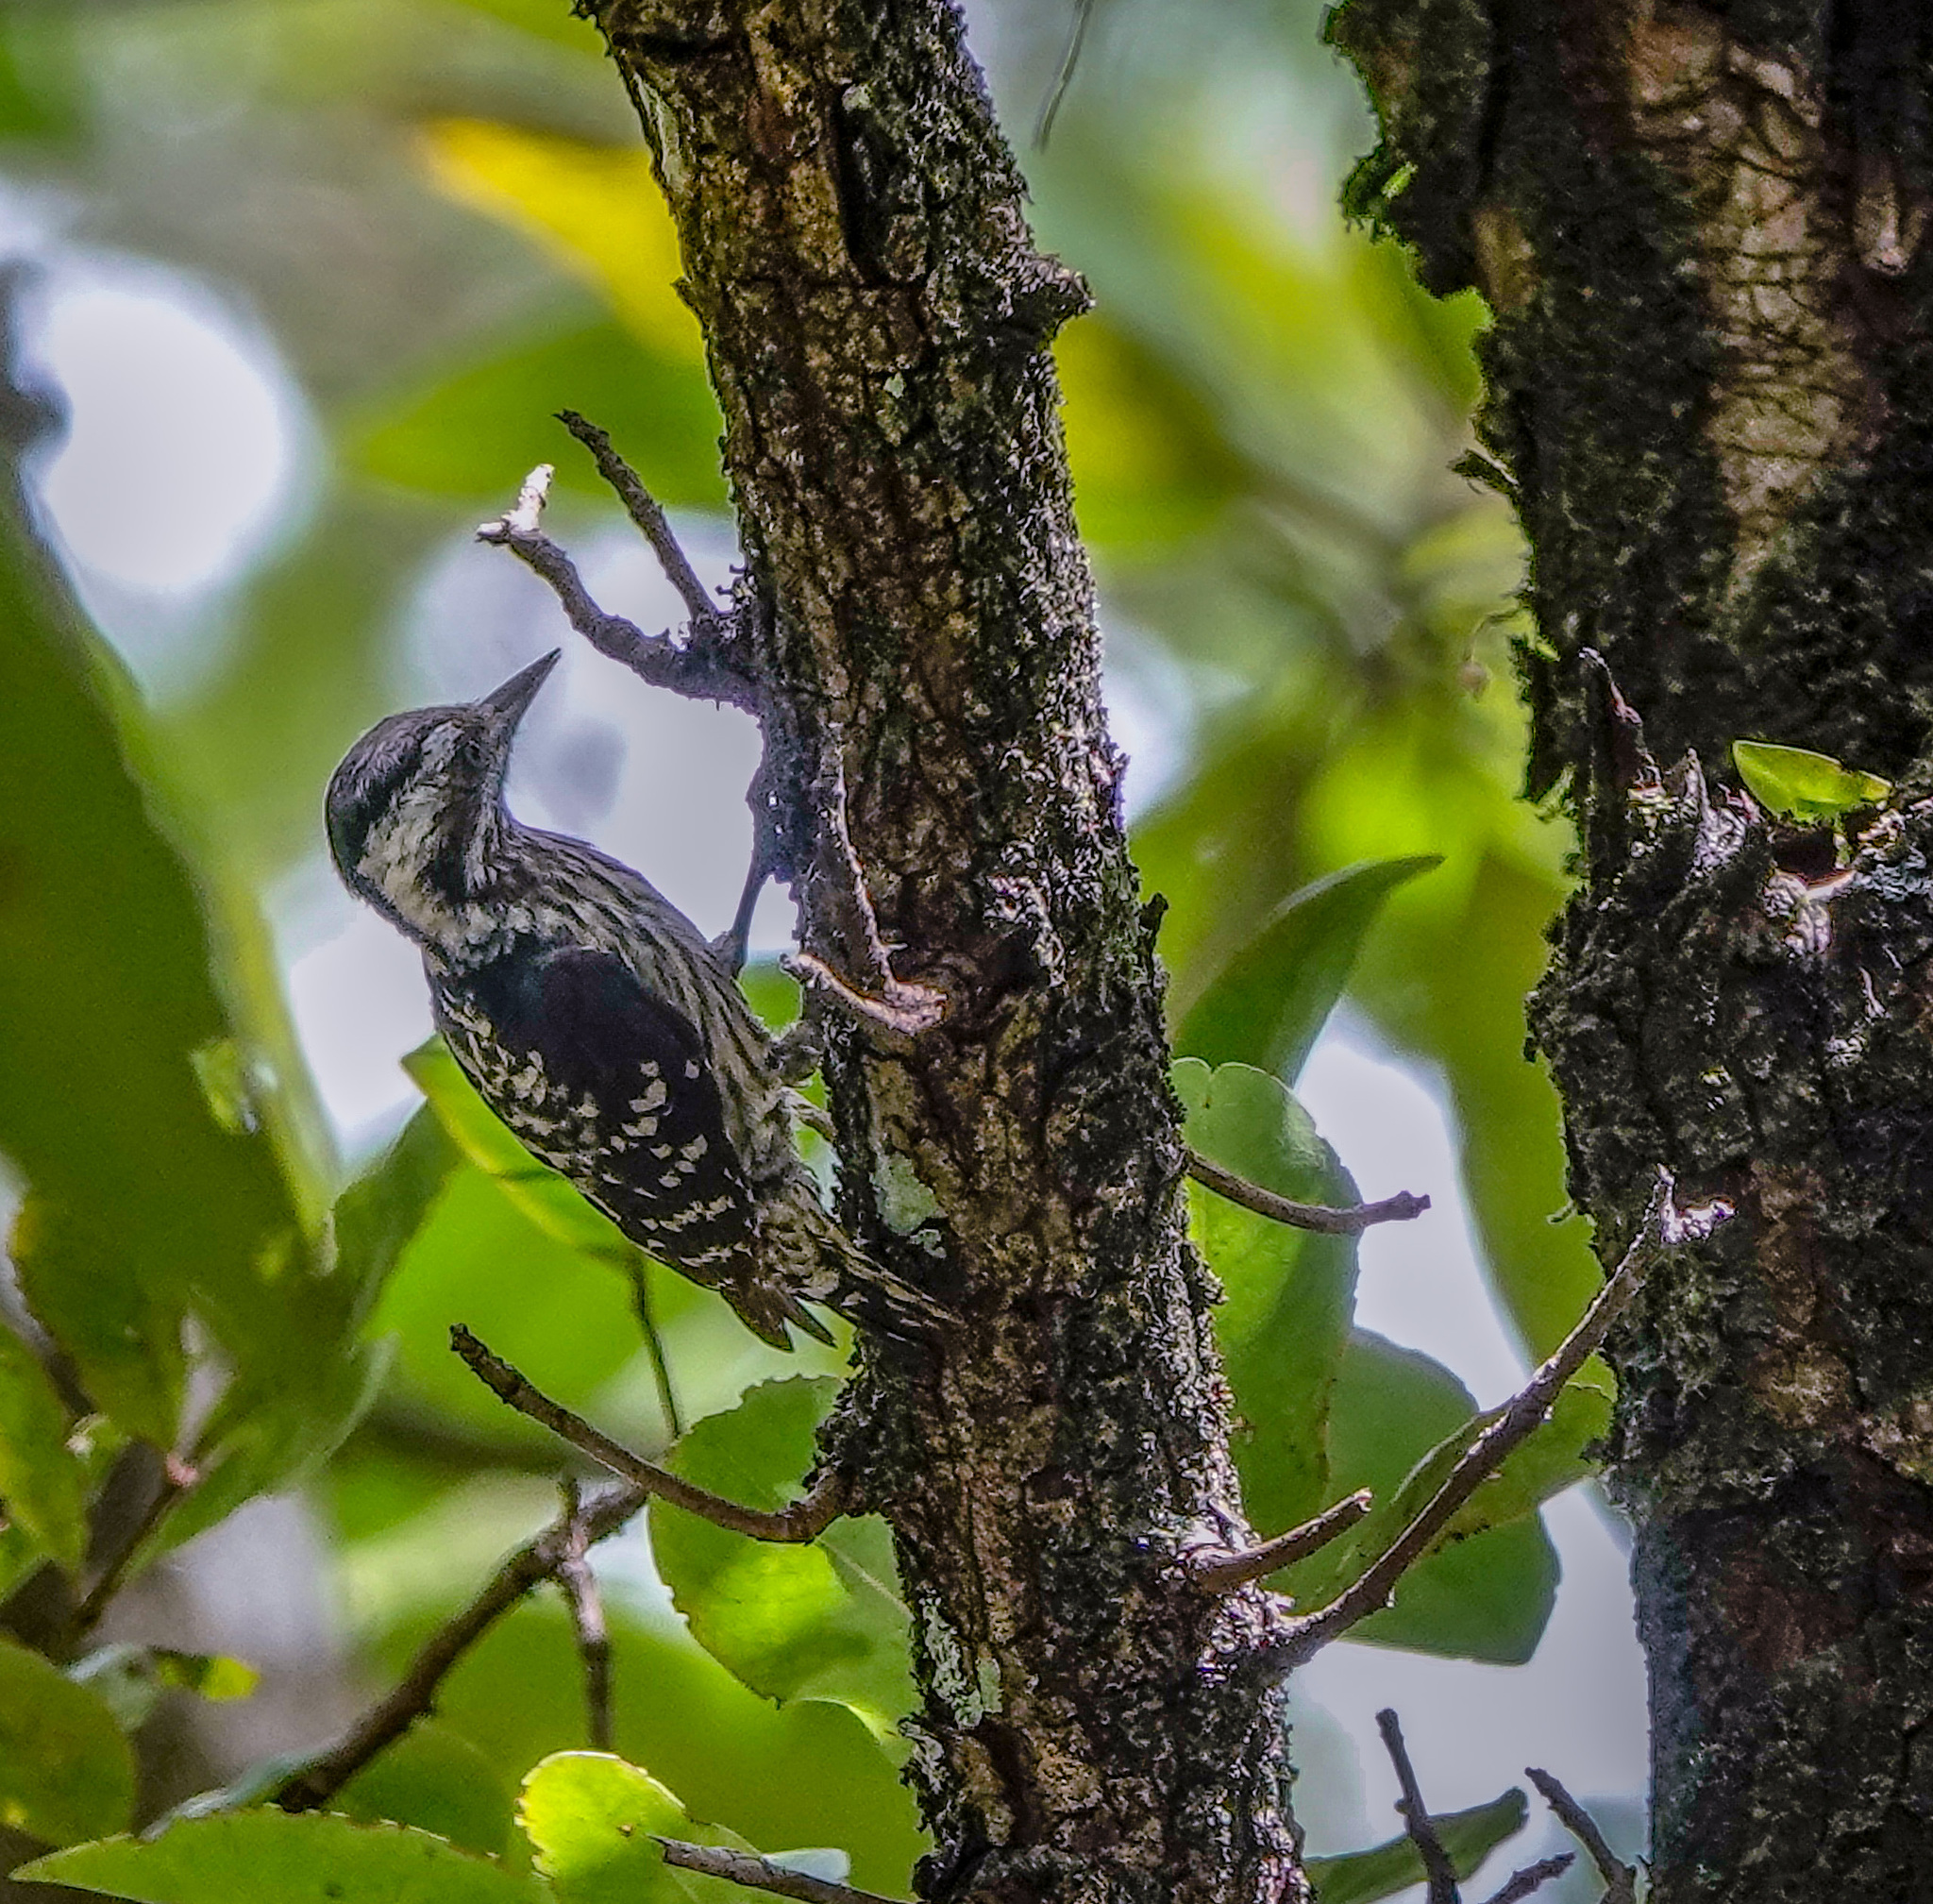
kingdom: Animalia
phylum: Chordata
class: Aves
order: Piciformes
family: Picidae
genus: Yungipicus
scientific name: Yungipicus canicapillus
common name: Grey-capped pygmy woodpecker
